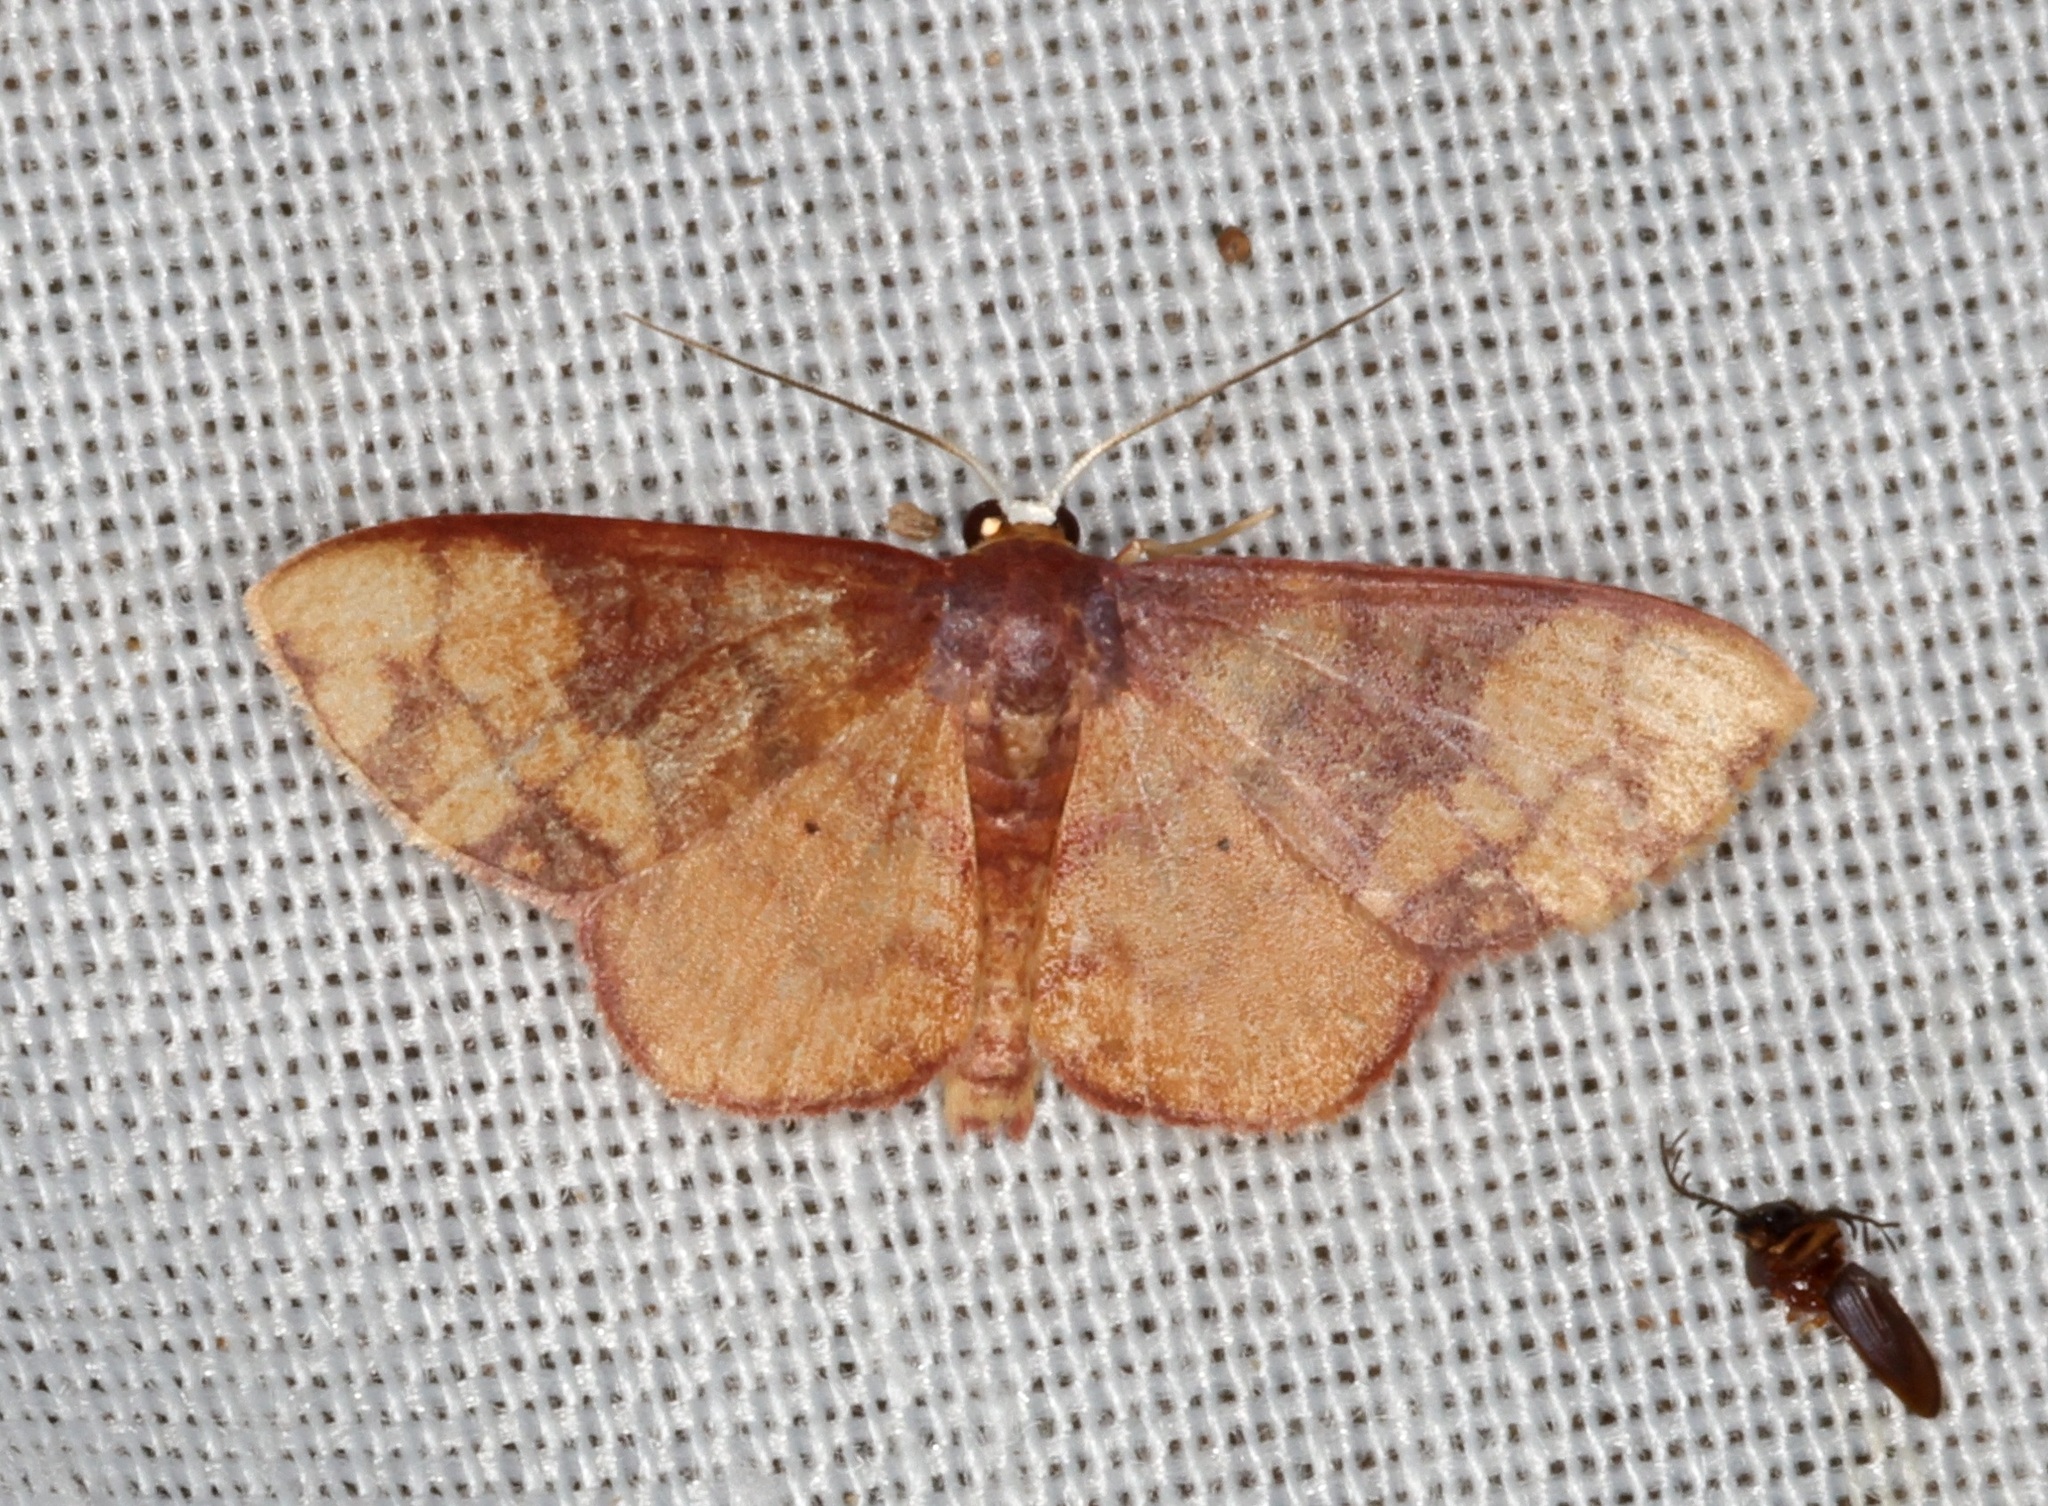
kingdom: Animalia
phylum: Arthropoda
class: Insecta
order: Lepidoptera
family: Geometridae
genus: Metallaxis
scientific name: Metallaxis
